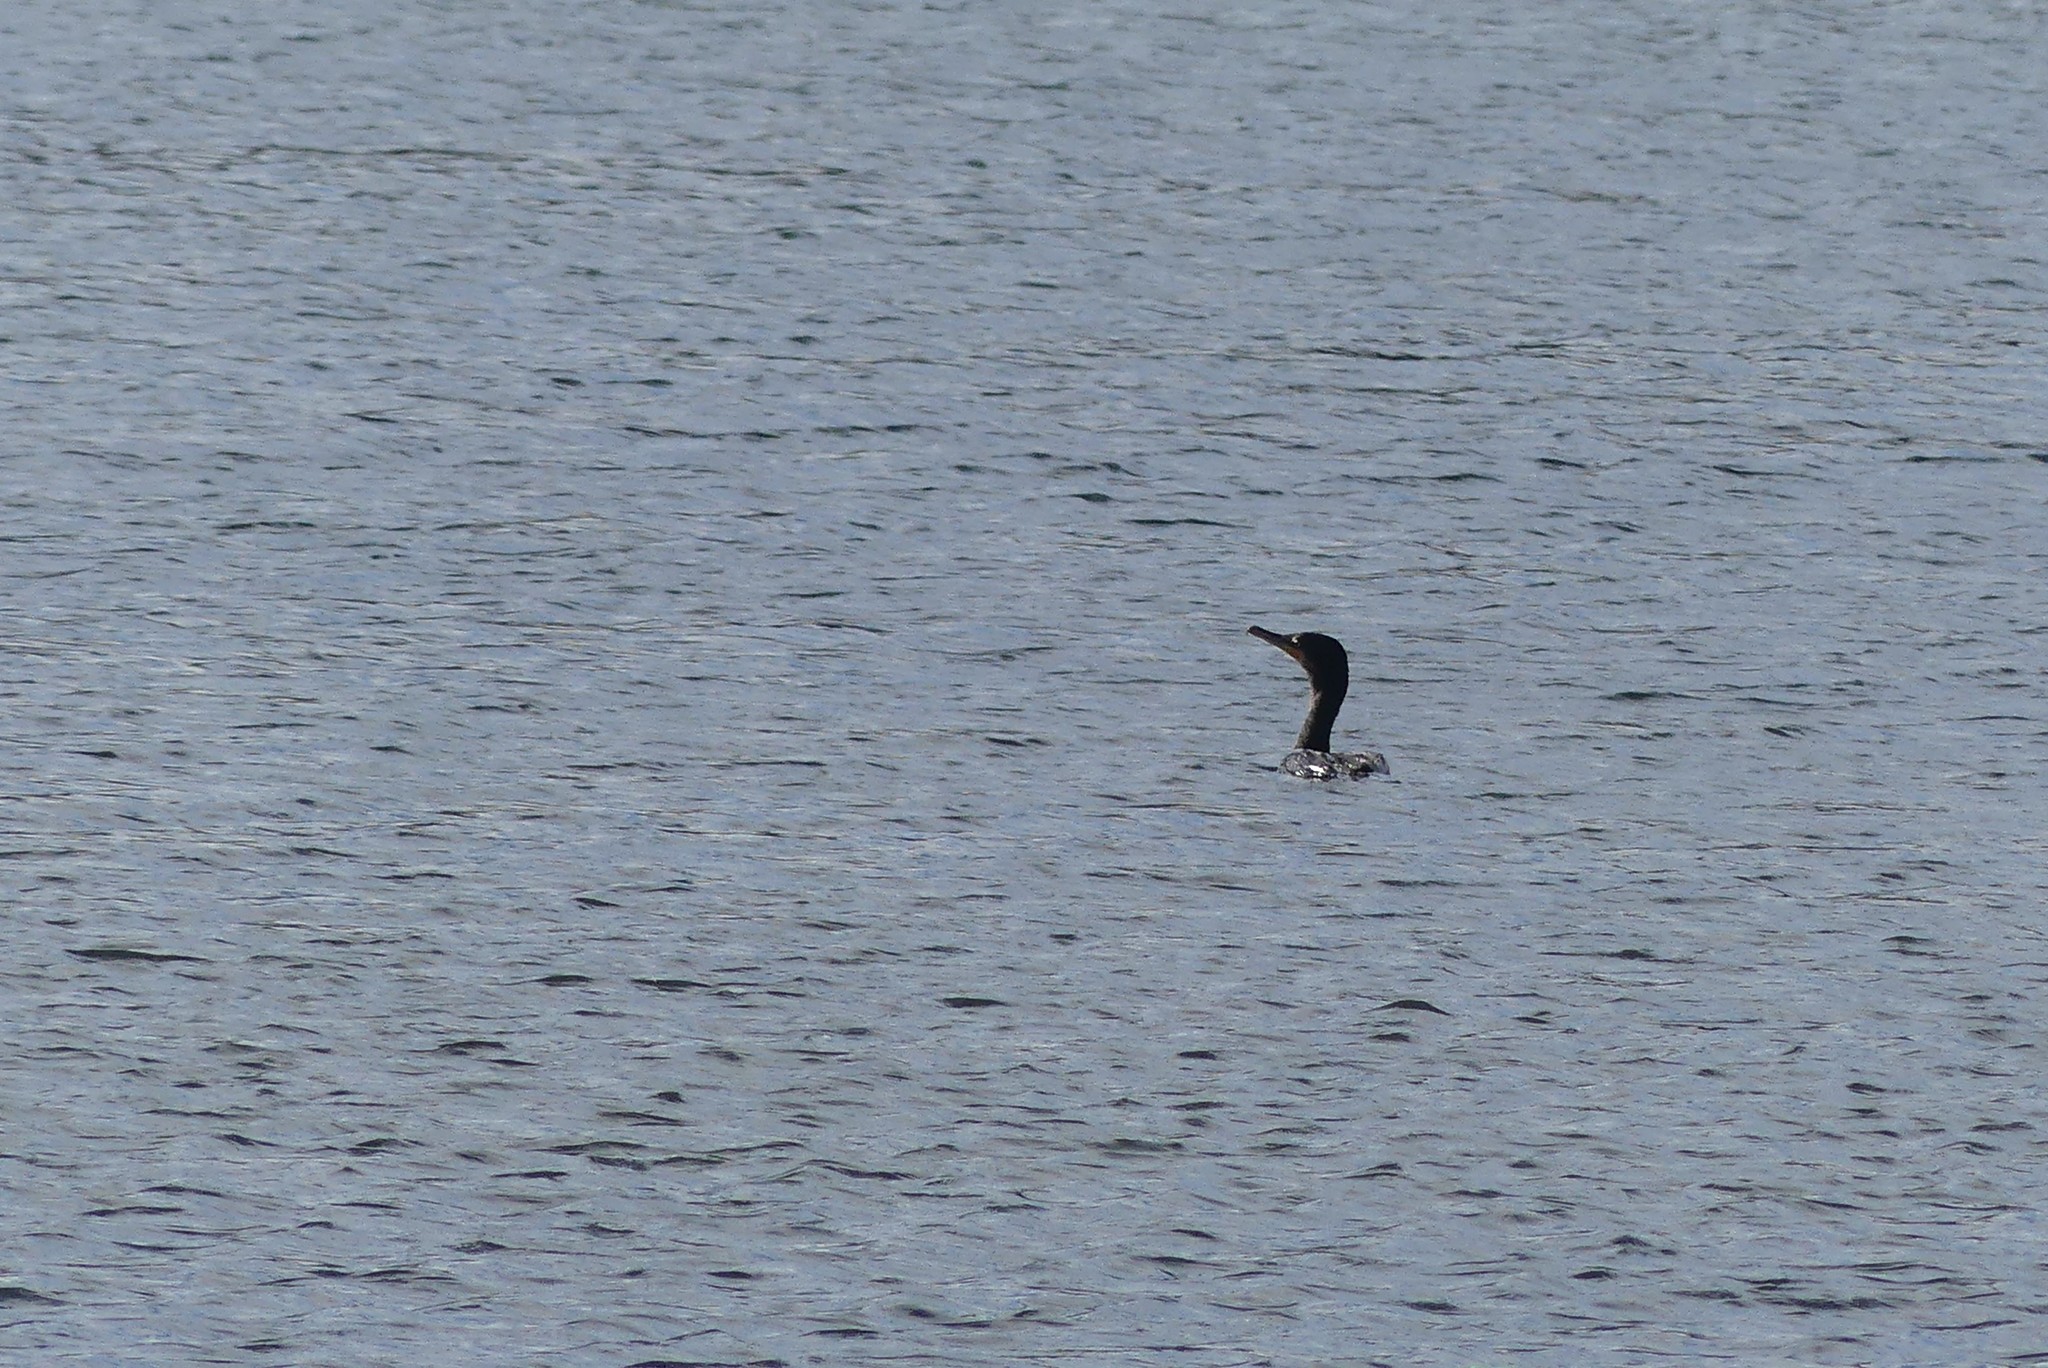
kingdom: Animalia
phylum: Chordata
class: Aves
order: Suliformes
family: Phalacrocoracidae
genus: Phalacrocorax
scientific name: Phalacrocorax auritus
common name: Double-crested cormorant
